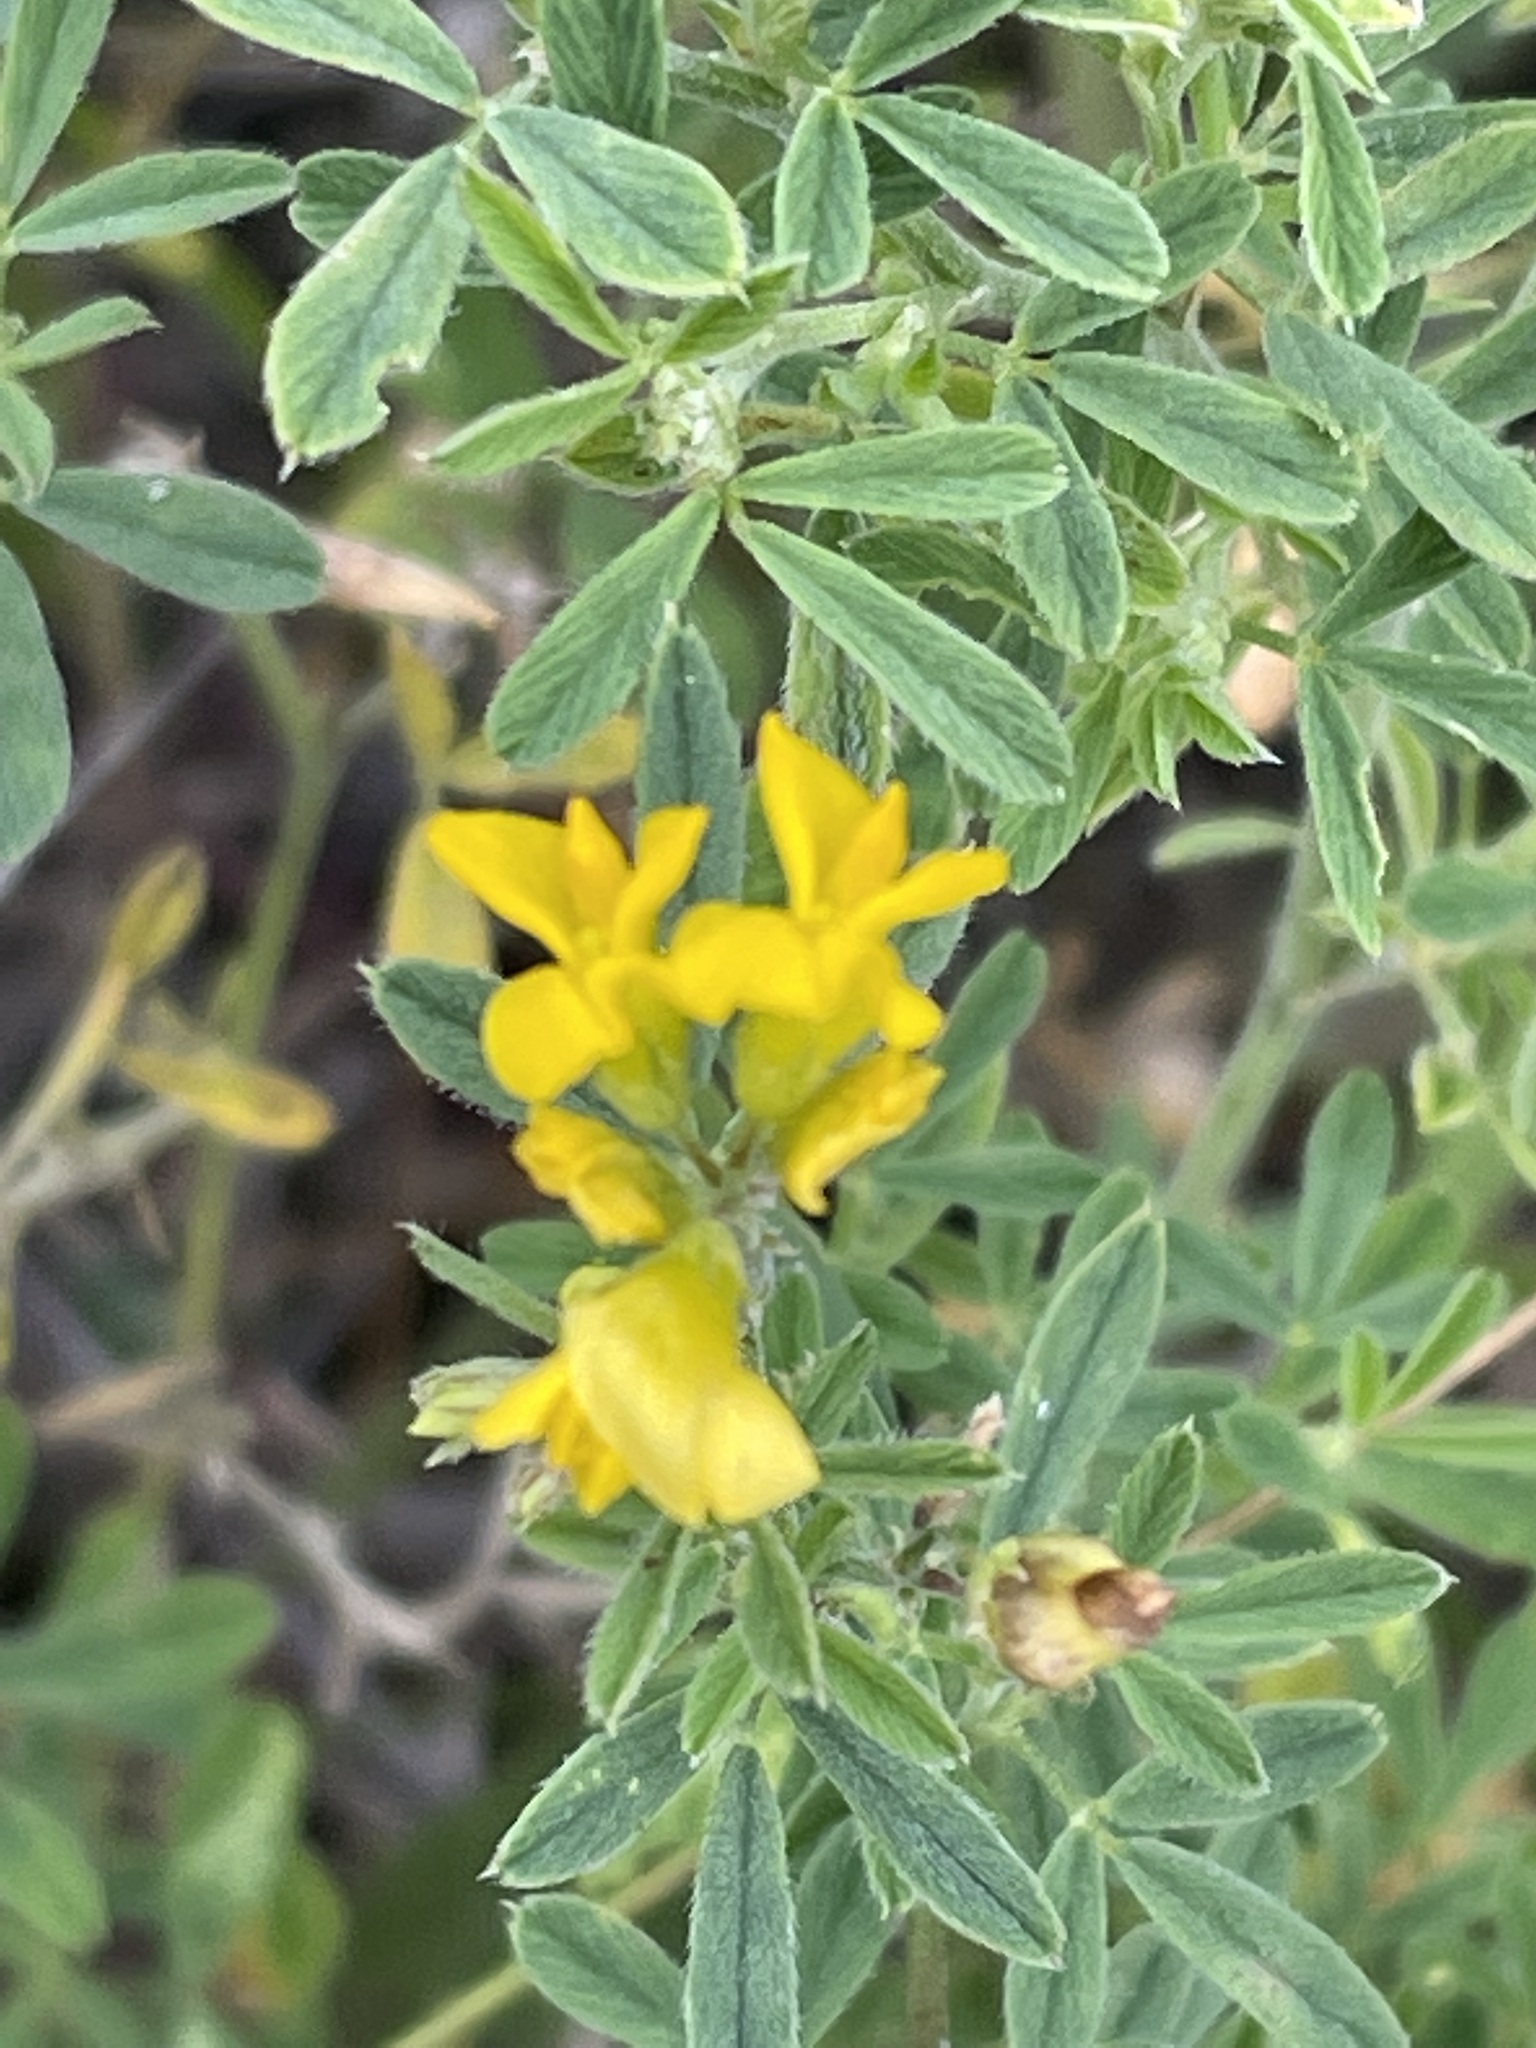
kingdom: Plantae
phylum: Tracheophyta
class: Magnoliopsida
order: Fabales
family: Fabaceae
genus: Medicago
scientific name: Medicago falcata
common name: Sickle medick
